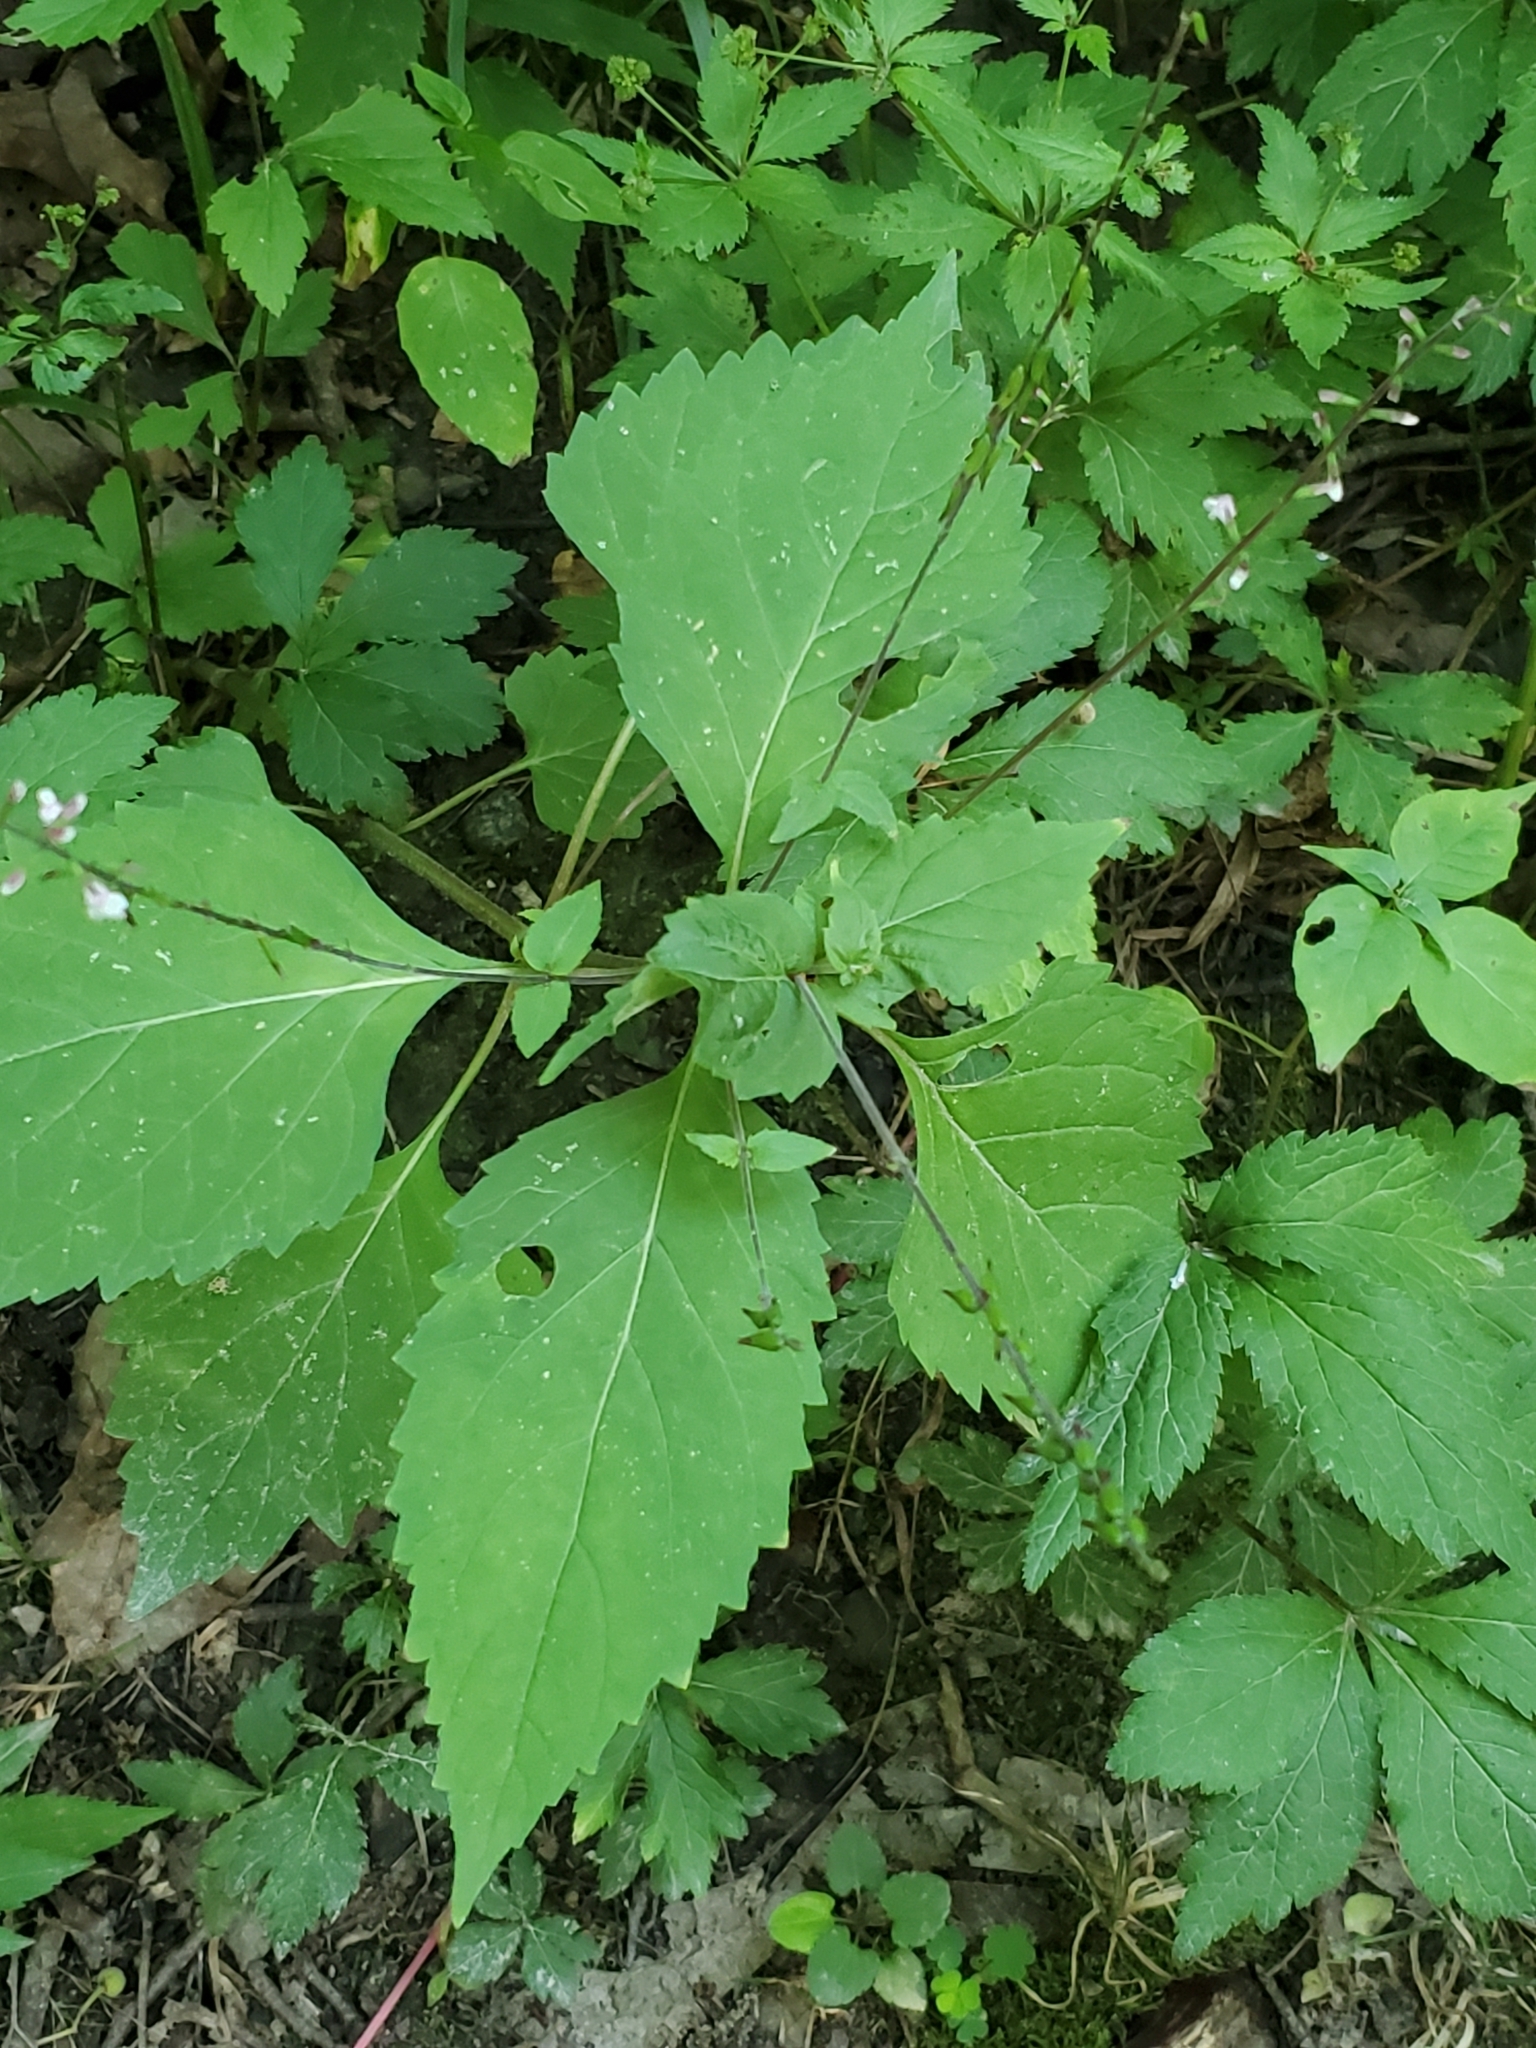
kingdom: Plantae
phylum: Tracheophyta
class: Magnoliopsida
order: Lamiales
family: Phrymaceae
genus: Phryma
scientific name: Phryma leptostachya
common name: American lopseed
